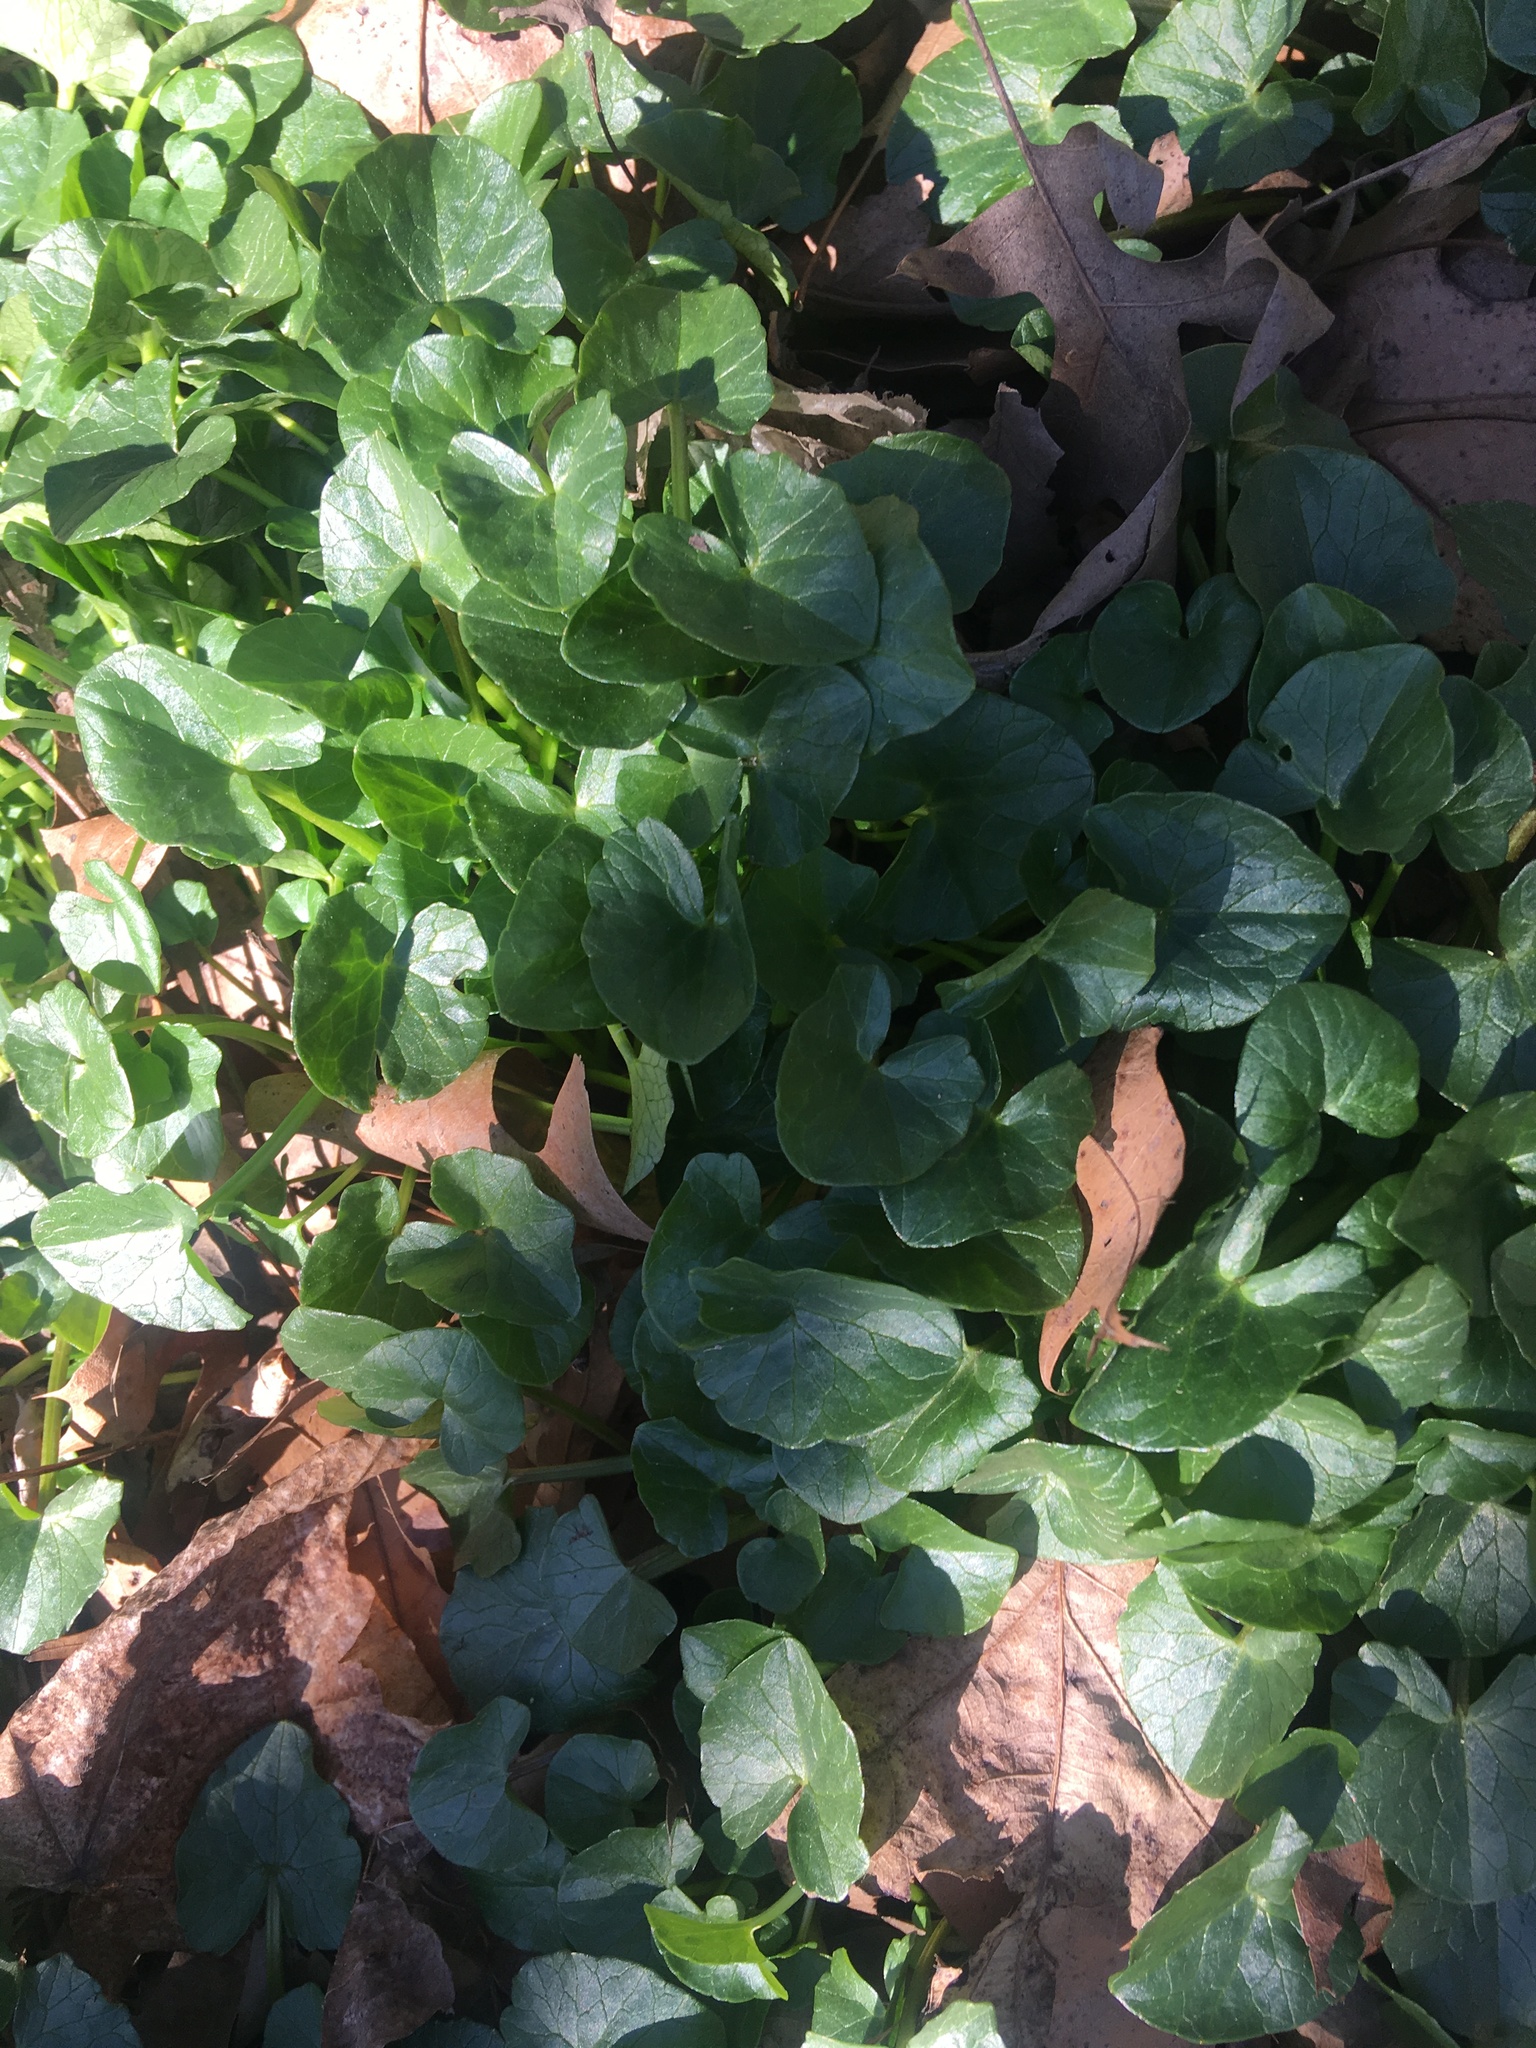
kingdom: Plantae
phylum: Tracheophyta
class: Magnoliopsida
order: Ranunculales
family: Ranunculaceae
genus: Ficaria
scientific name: Ficaria verna
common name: Lesser celandine
